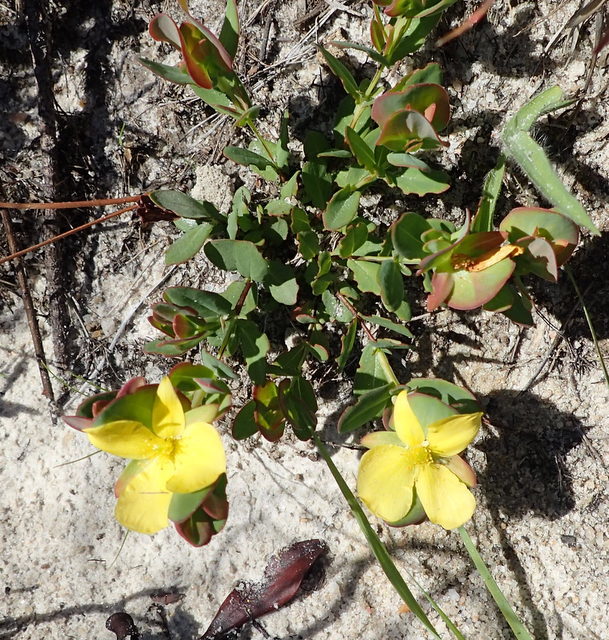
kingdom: Plantae
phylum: Tracheophyta
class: Magnoliopsida
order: Malpighiales
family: Hypericaceae
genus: Hypericum
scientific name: Hypericum tetrapetalum
